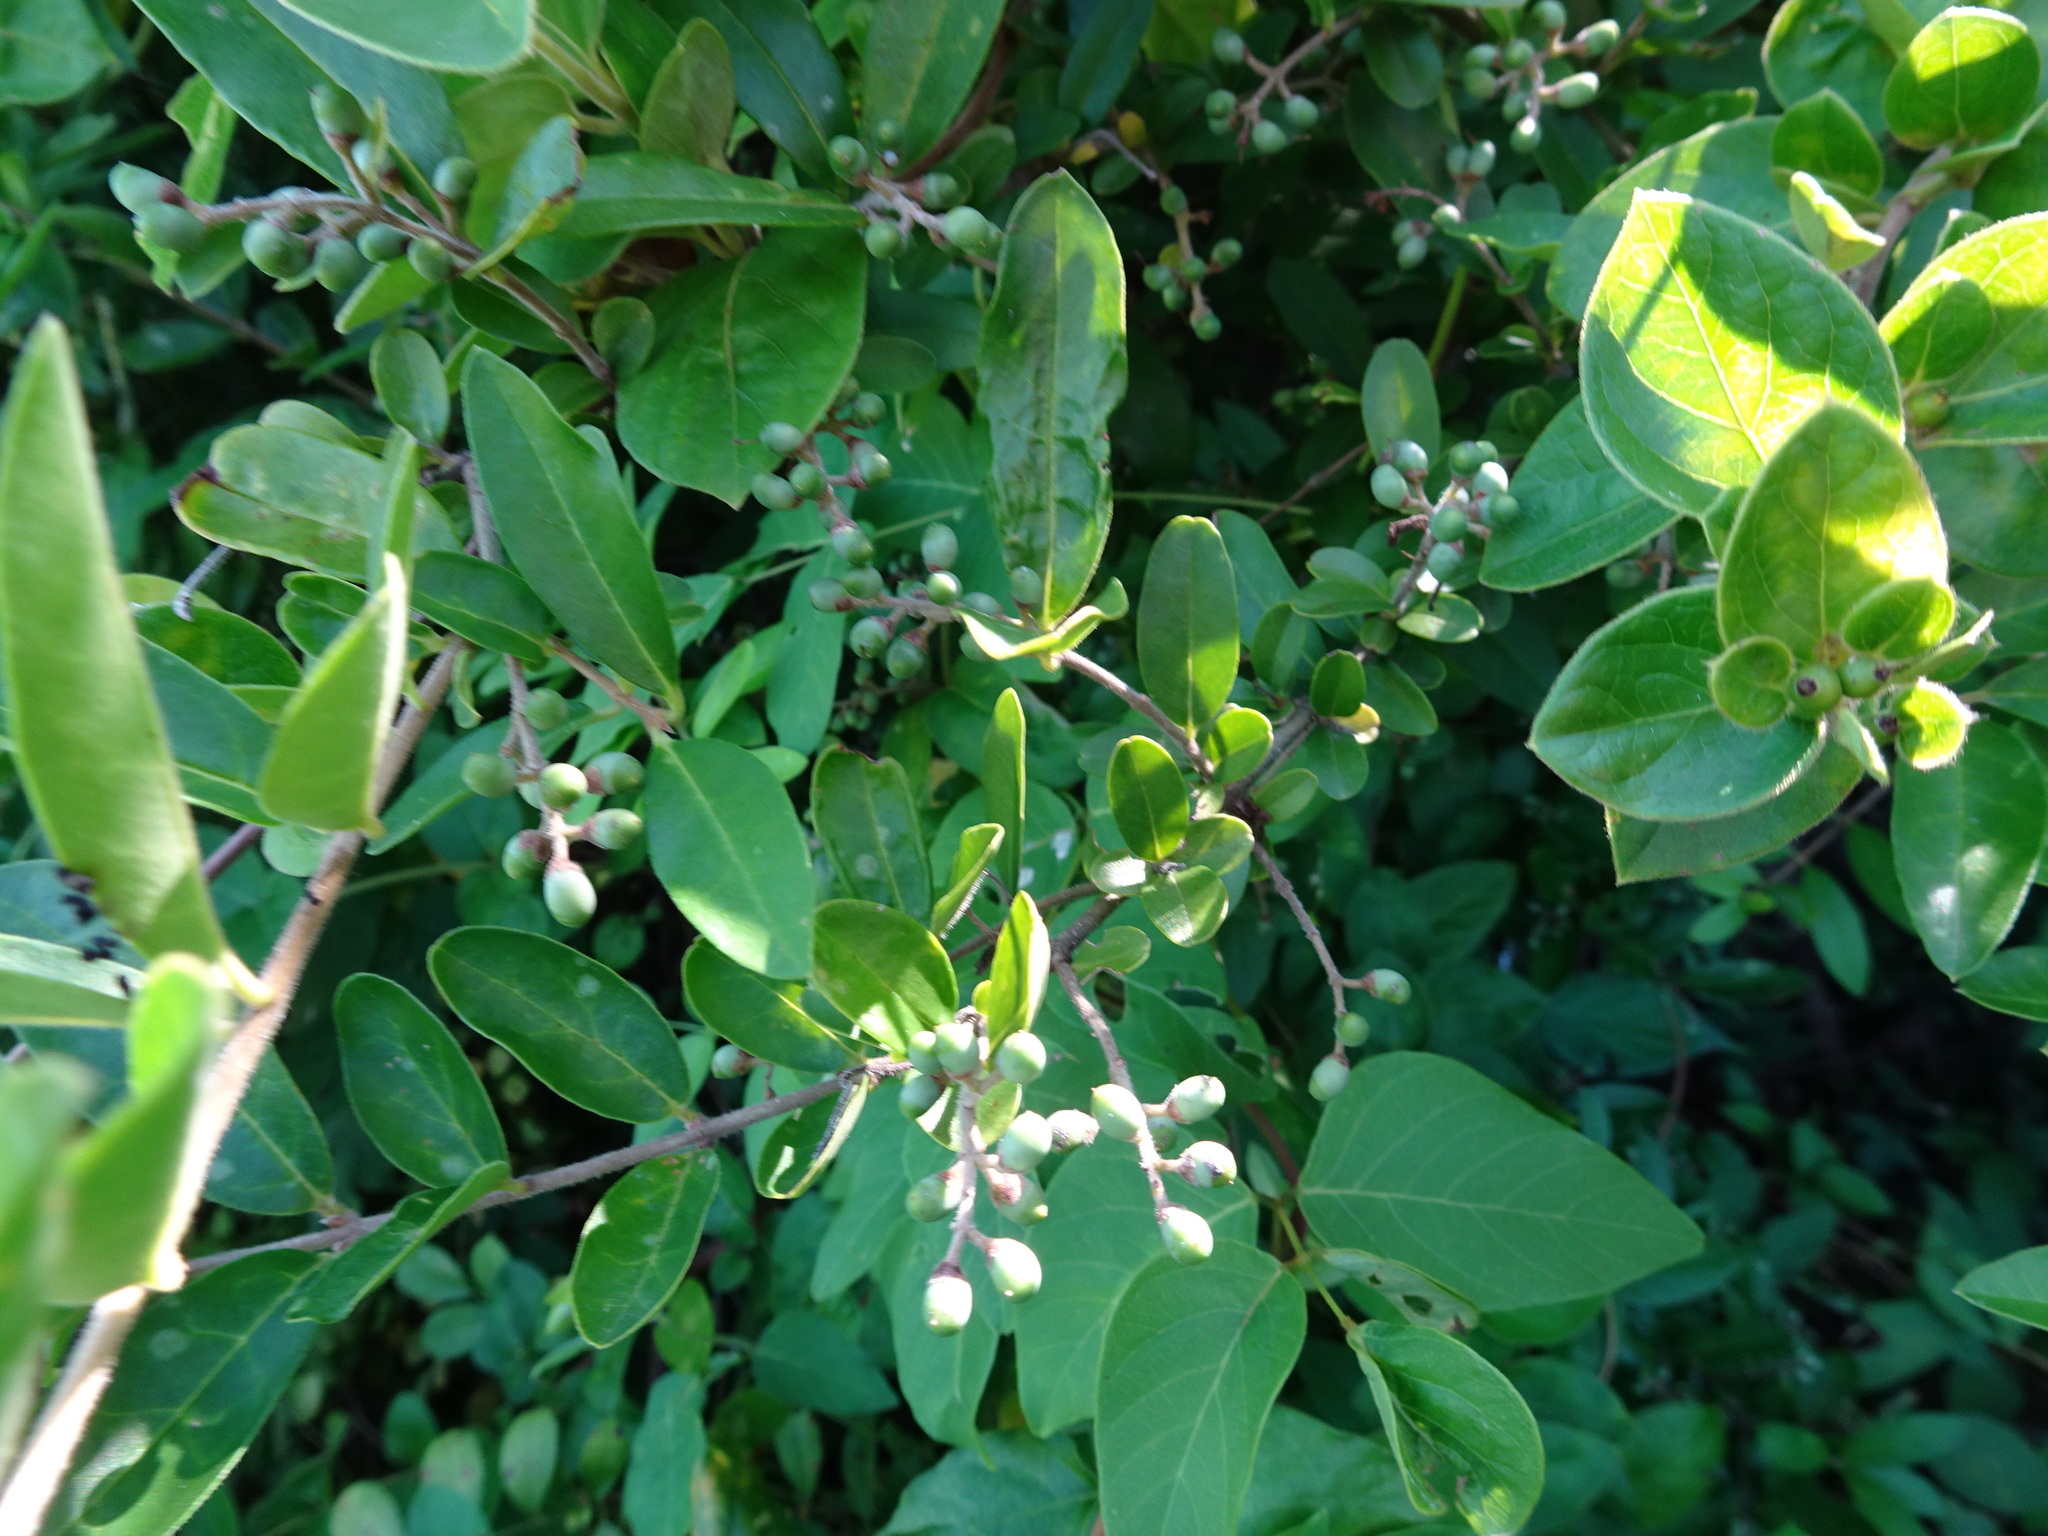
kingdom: Plantae
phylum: Tracheophyta
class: Magnoliopsida
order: Lamiales
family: Oleaceae
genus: Ligustrum
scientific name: Ligustrum obtusifolium
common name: Border privet
